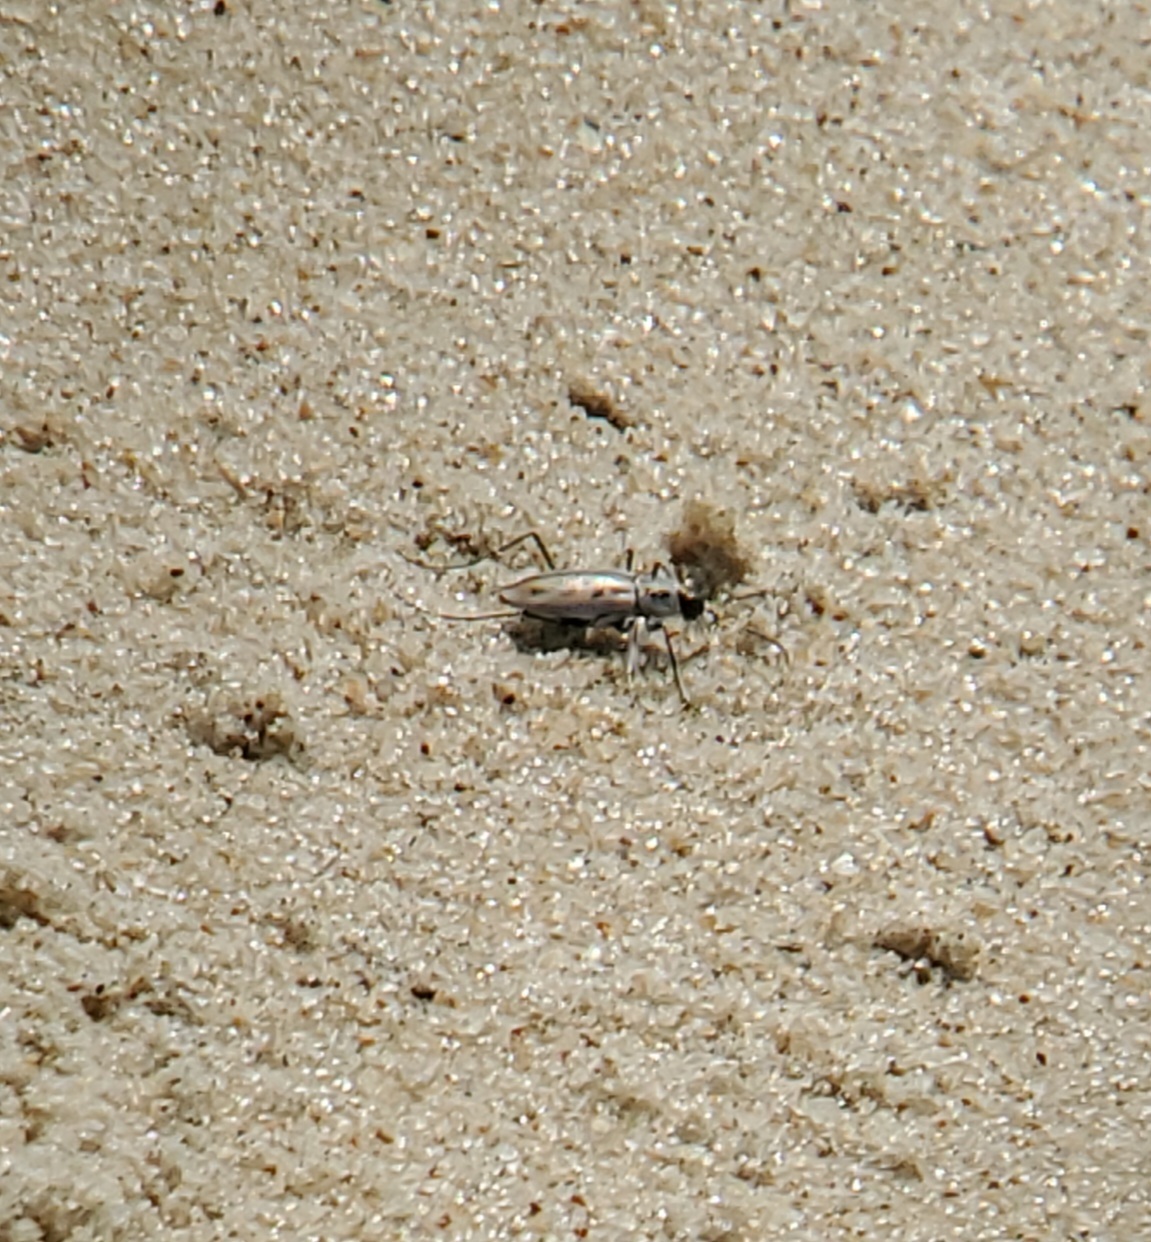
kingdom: Animalia
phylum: Arthropoda
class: Insecta
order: Coleoptera
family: Carabidae
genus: Habroscelimorpha
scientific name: Habroscelimorpha dorsalis
